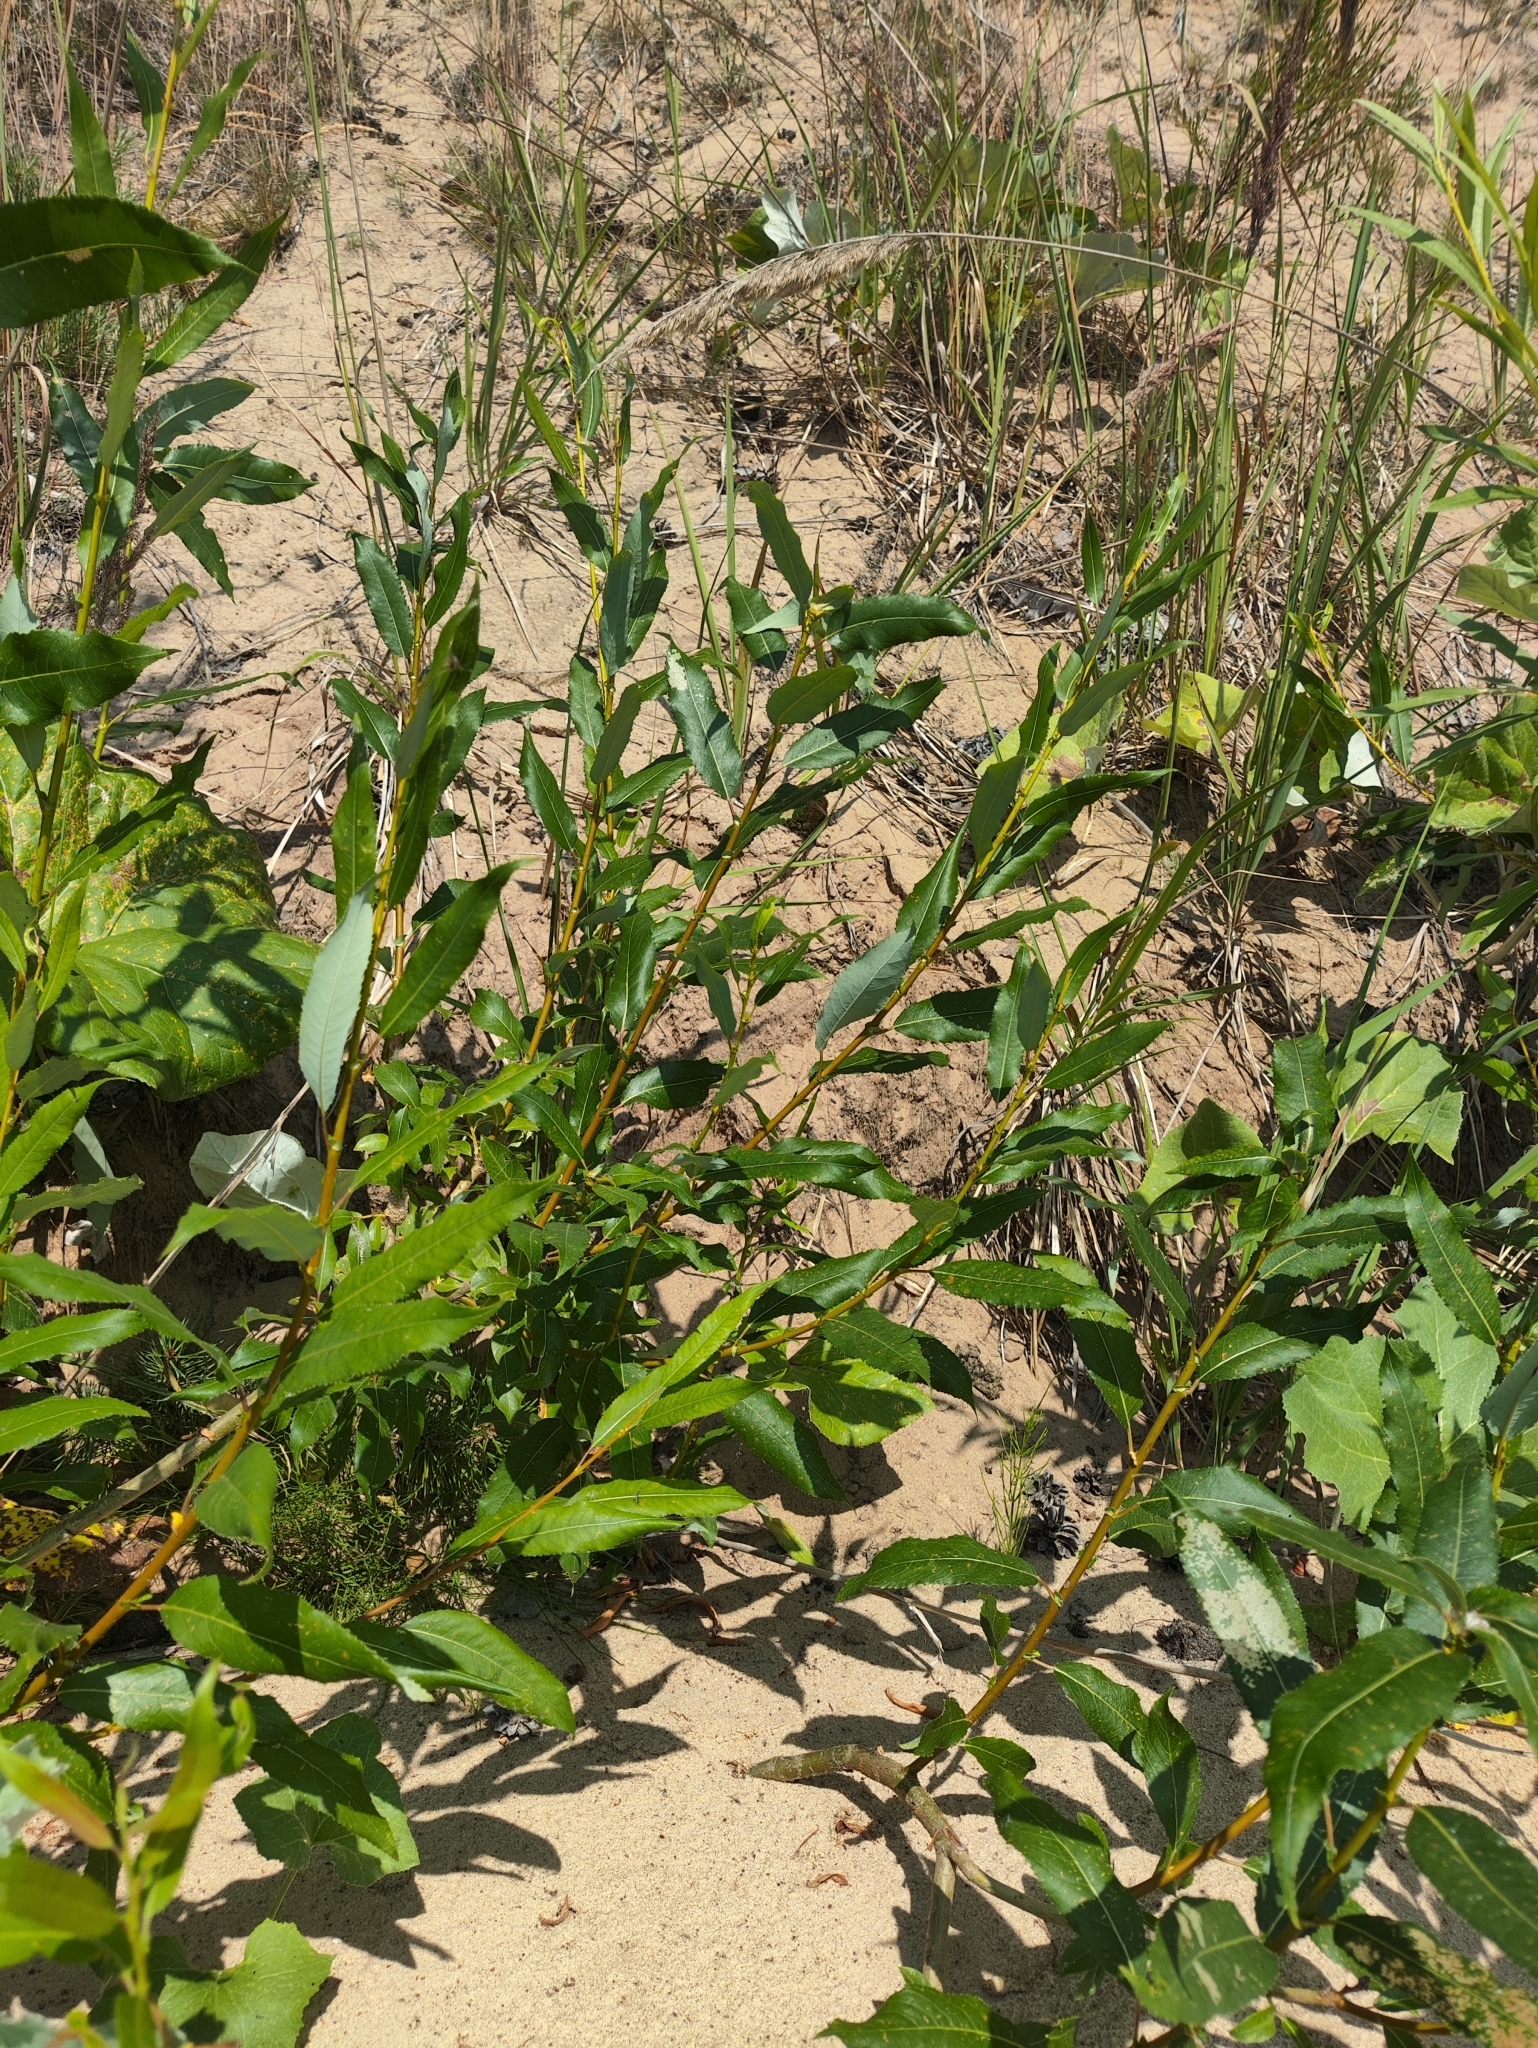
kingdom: Plantae
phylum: Tracheophyta
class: Magnoliopsida
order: Malpighiales
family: Salicaceae
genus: Salix
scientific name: Salix triandra
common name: Almond willow
